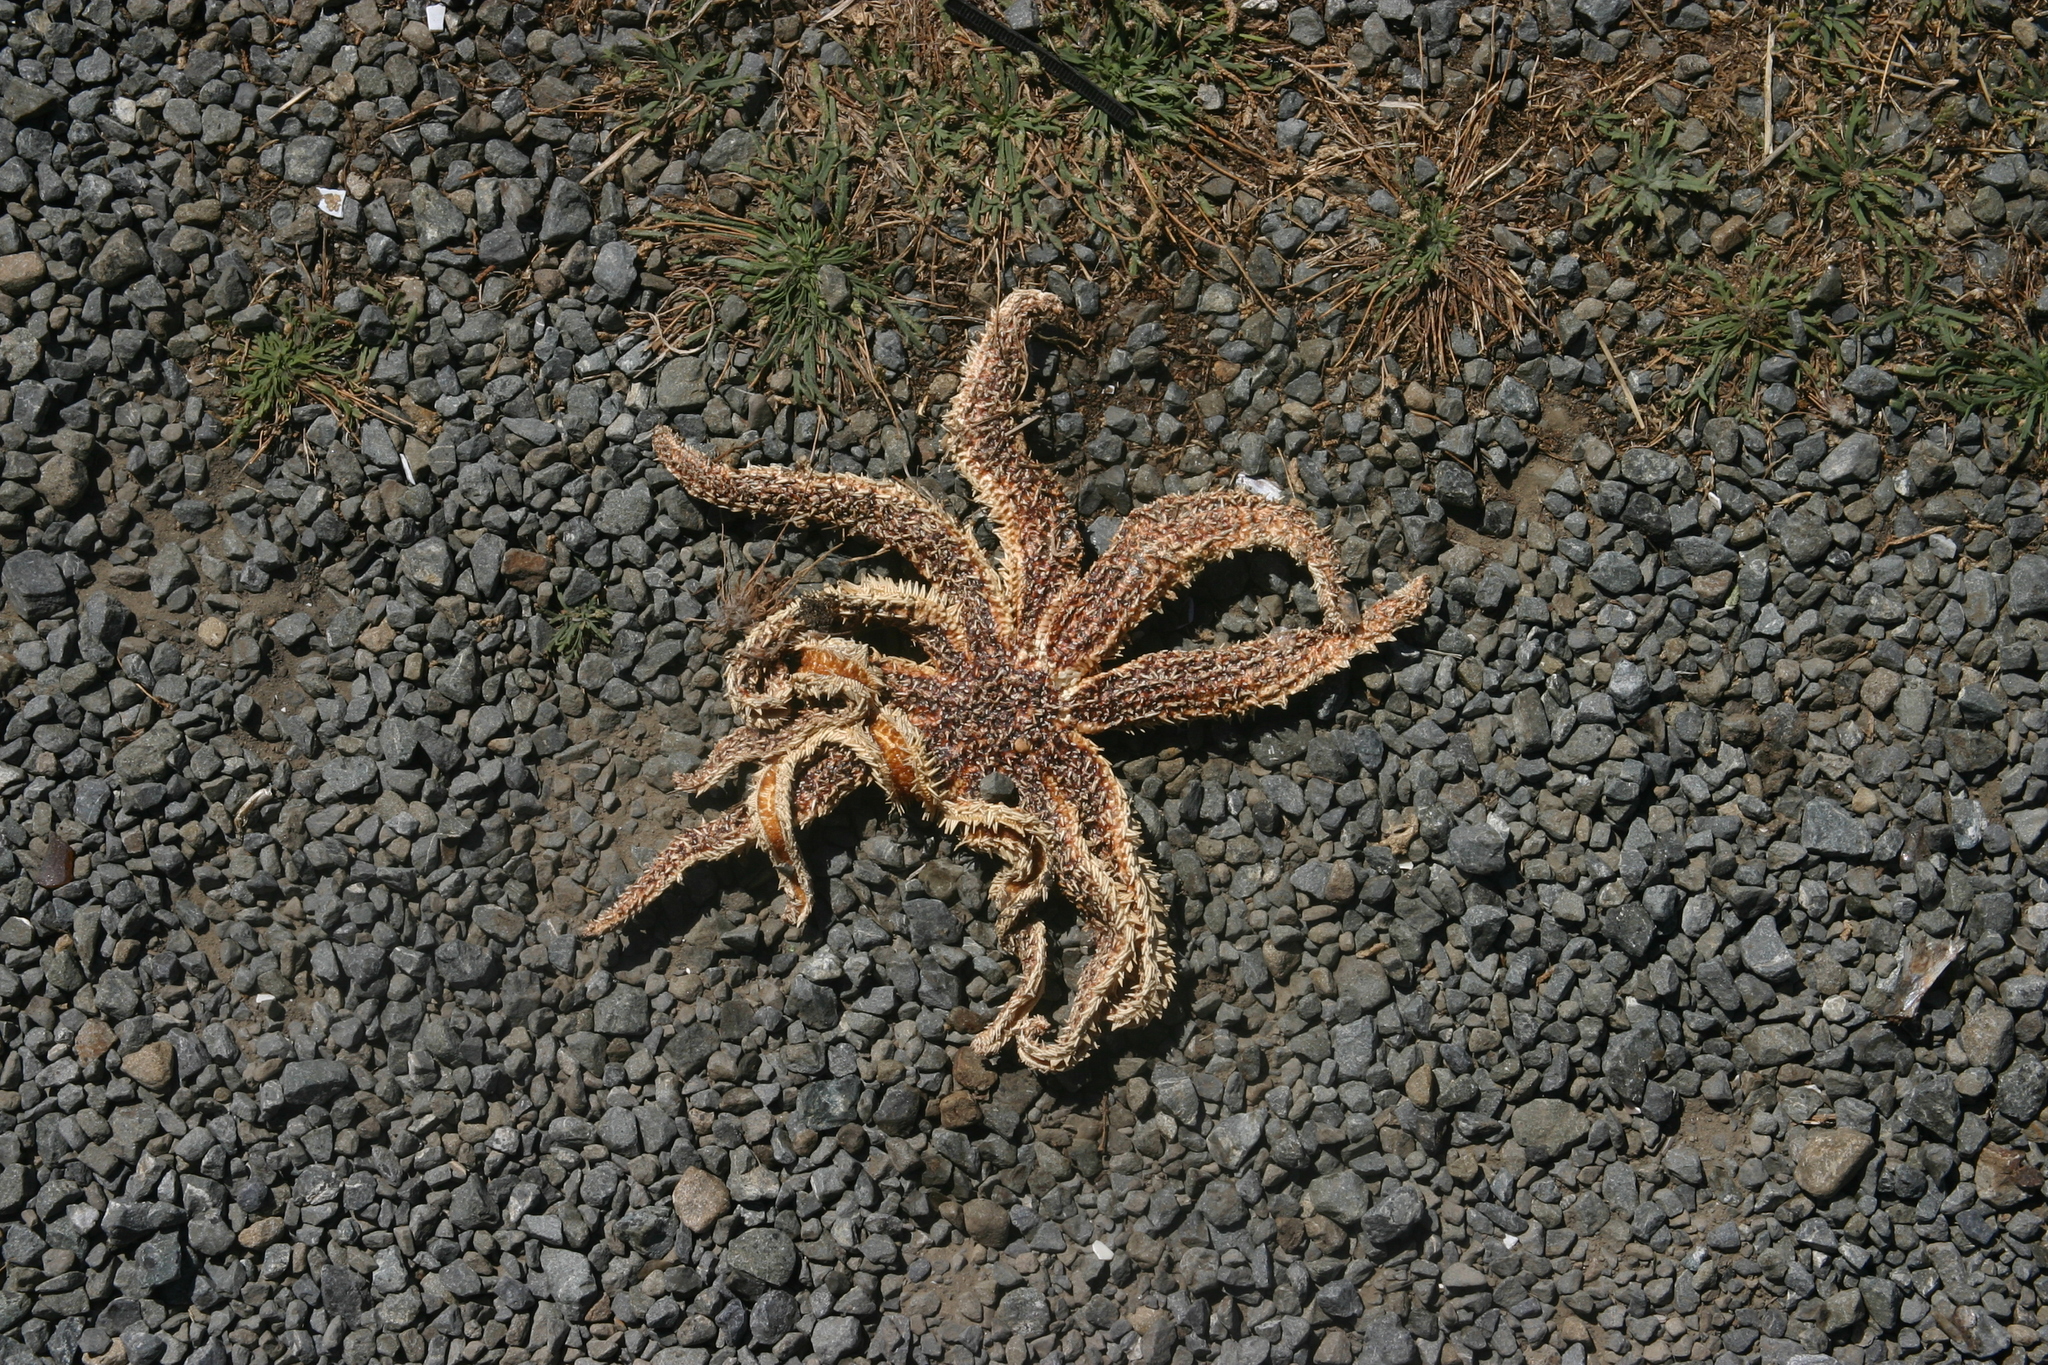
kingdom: Animalia
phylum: Echinodermata
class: Asteroidea
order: Forcipulatida
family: Asteriidae
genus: Coscinasterias
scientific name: Coscinasterias muricata
